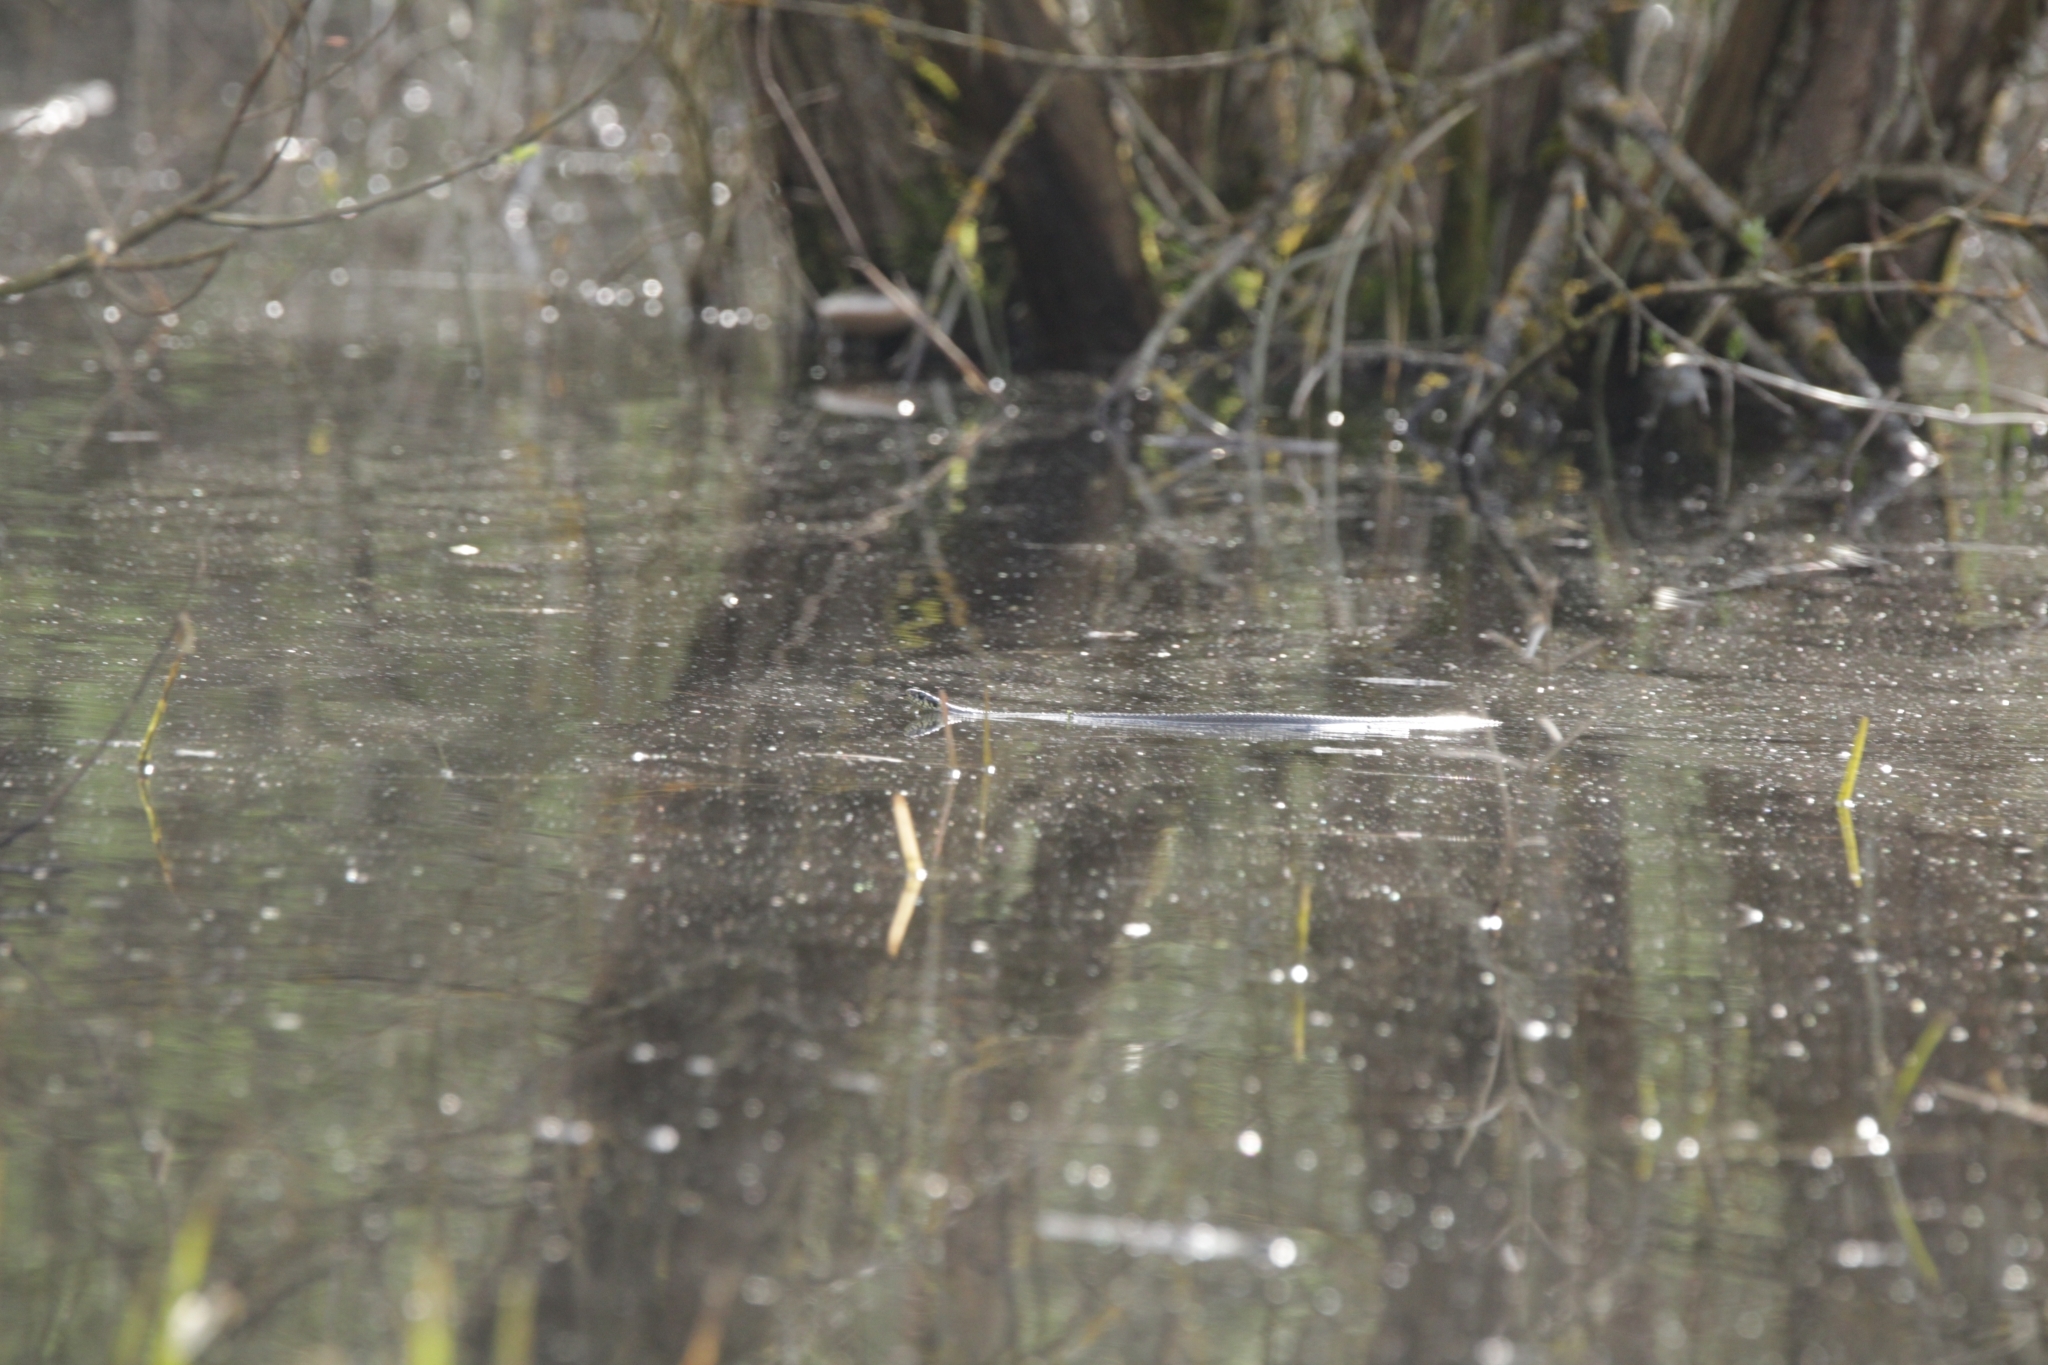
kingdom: Animalia
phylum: Chordata
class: Squamata
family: Colubridae
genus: Natrix
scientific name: Natrix natrix
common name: Grass snake
